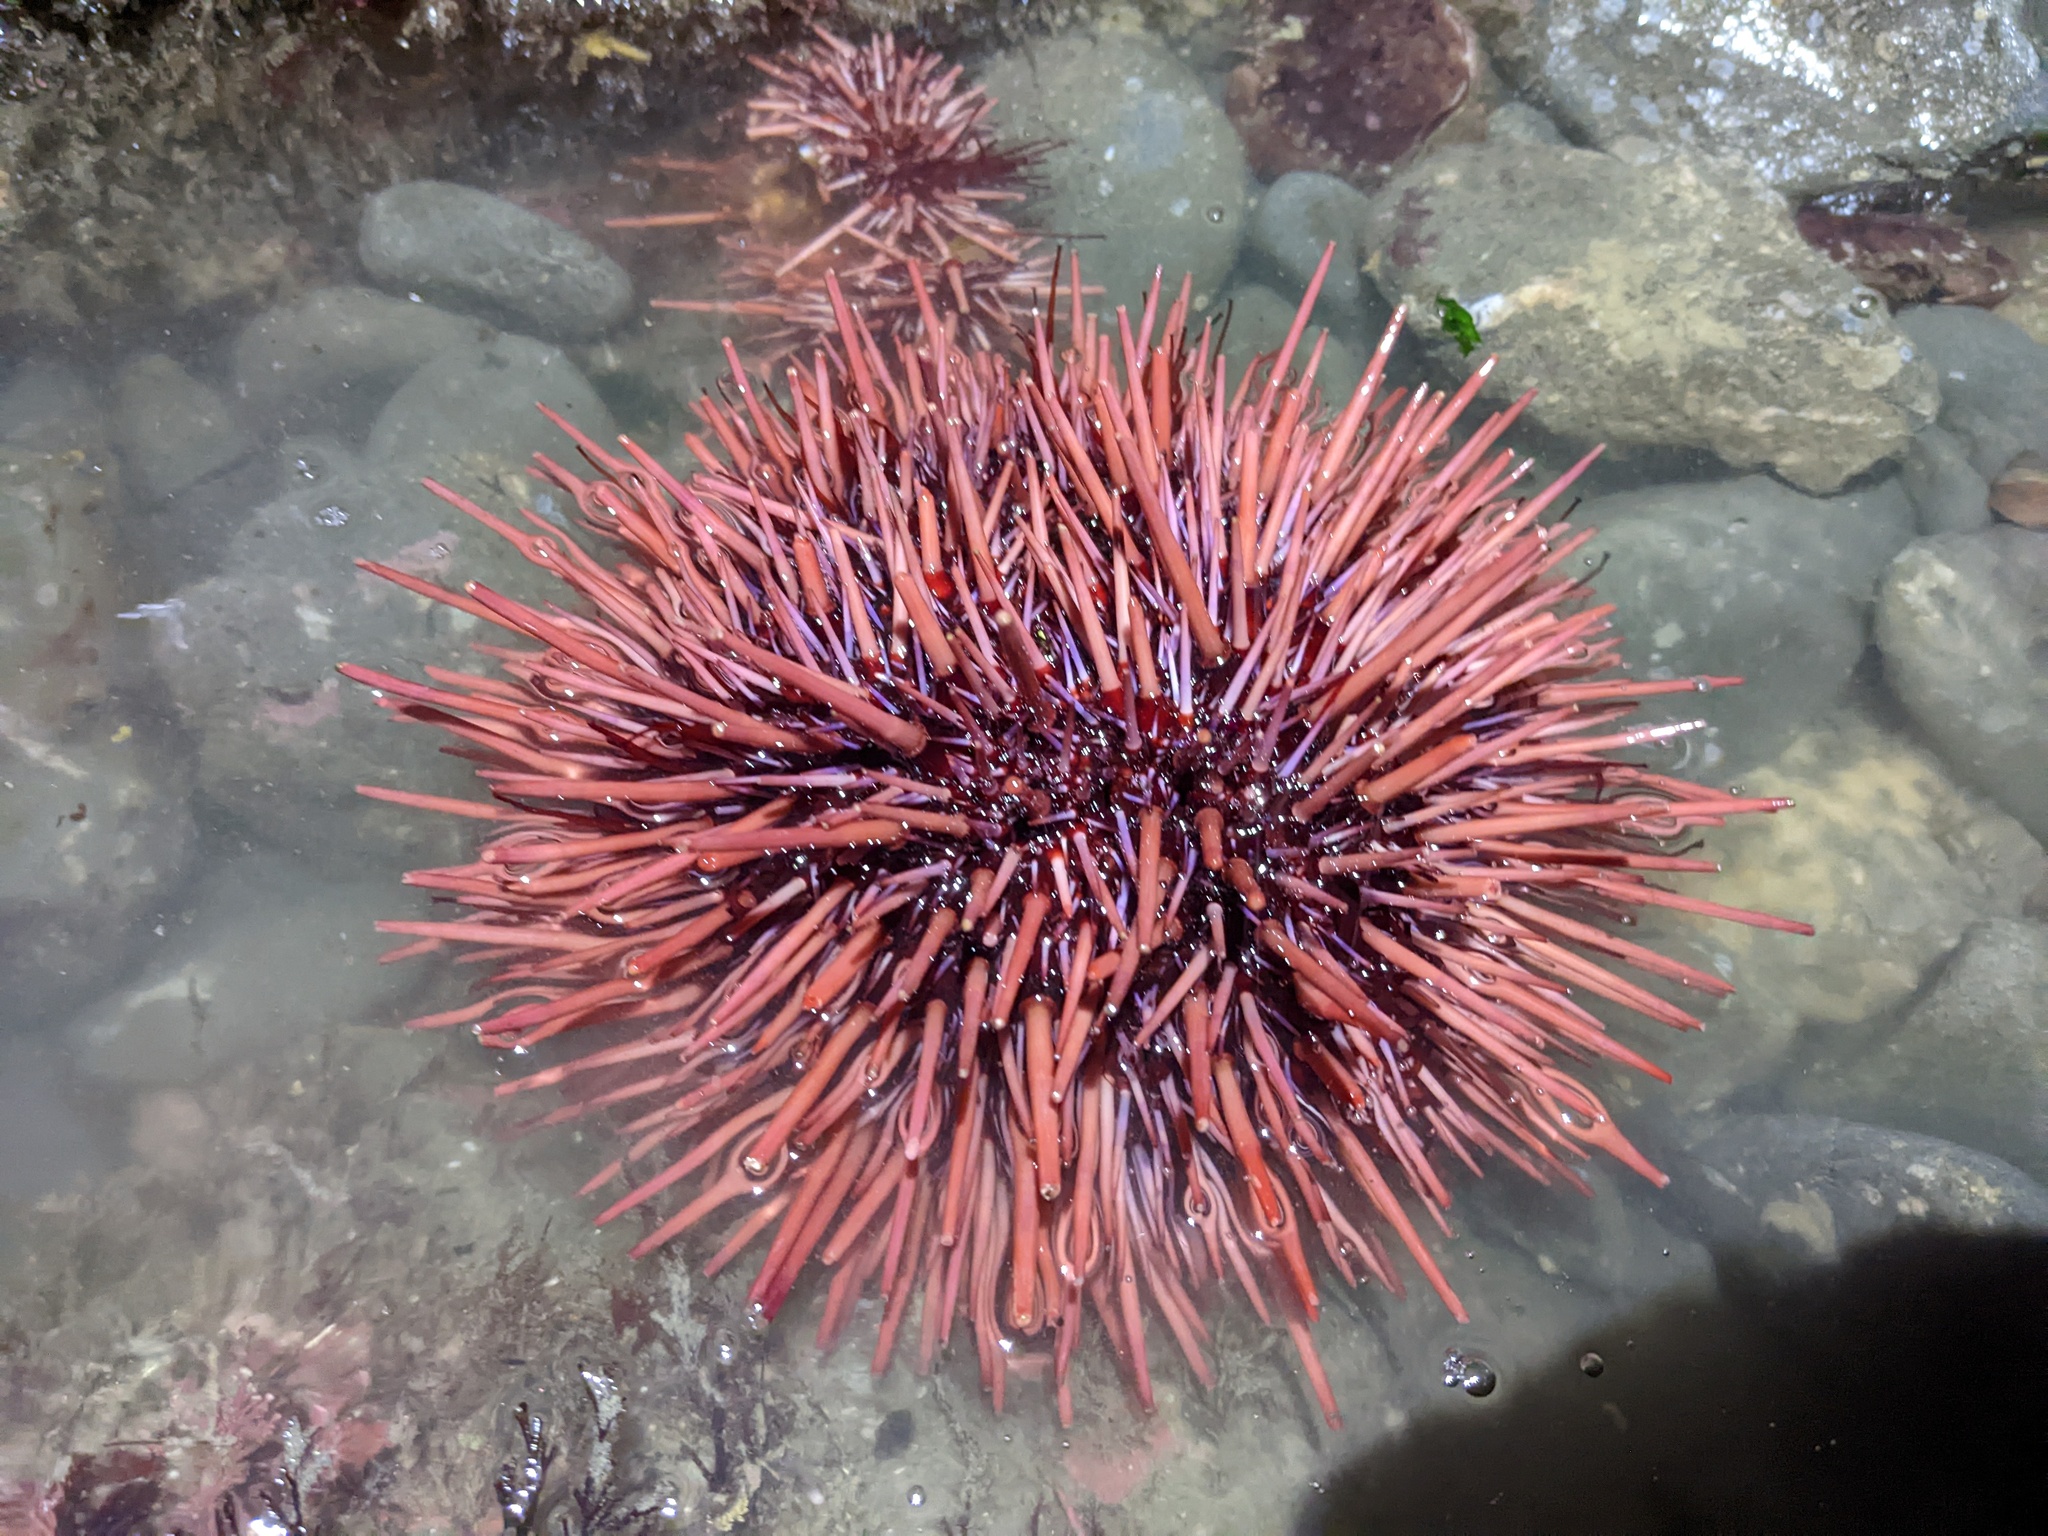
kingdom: Animalia
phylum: Echinodermata
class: Echinoidea
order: Camarodonta
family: Strongylocentrotidae
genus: Mesocentrotus
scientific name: Mesocentrotus franciscanus
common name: Red sea urchin
